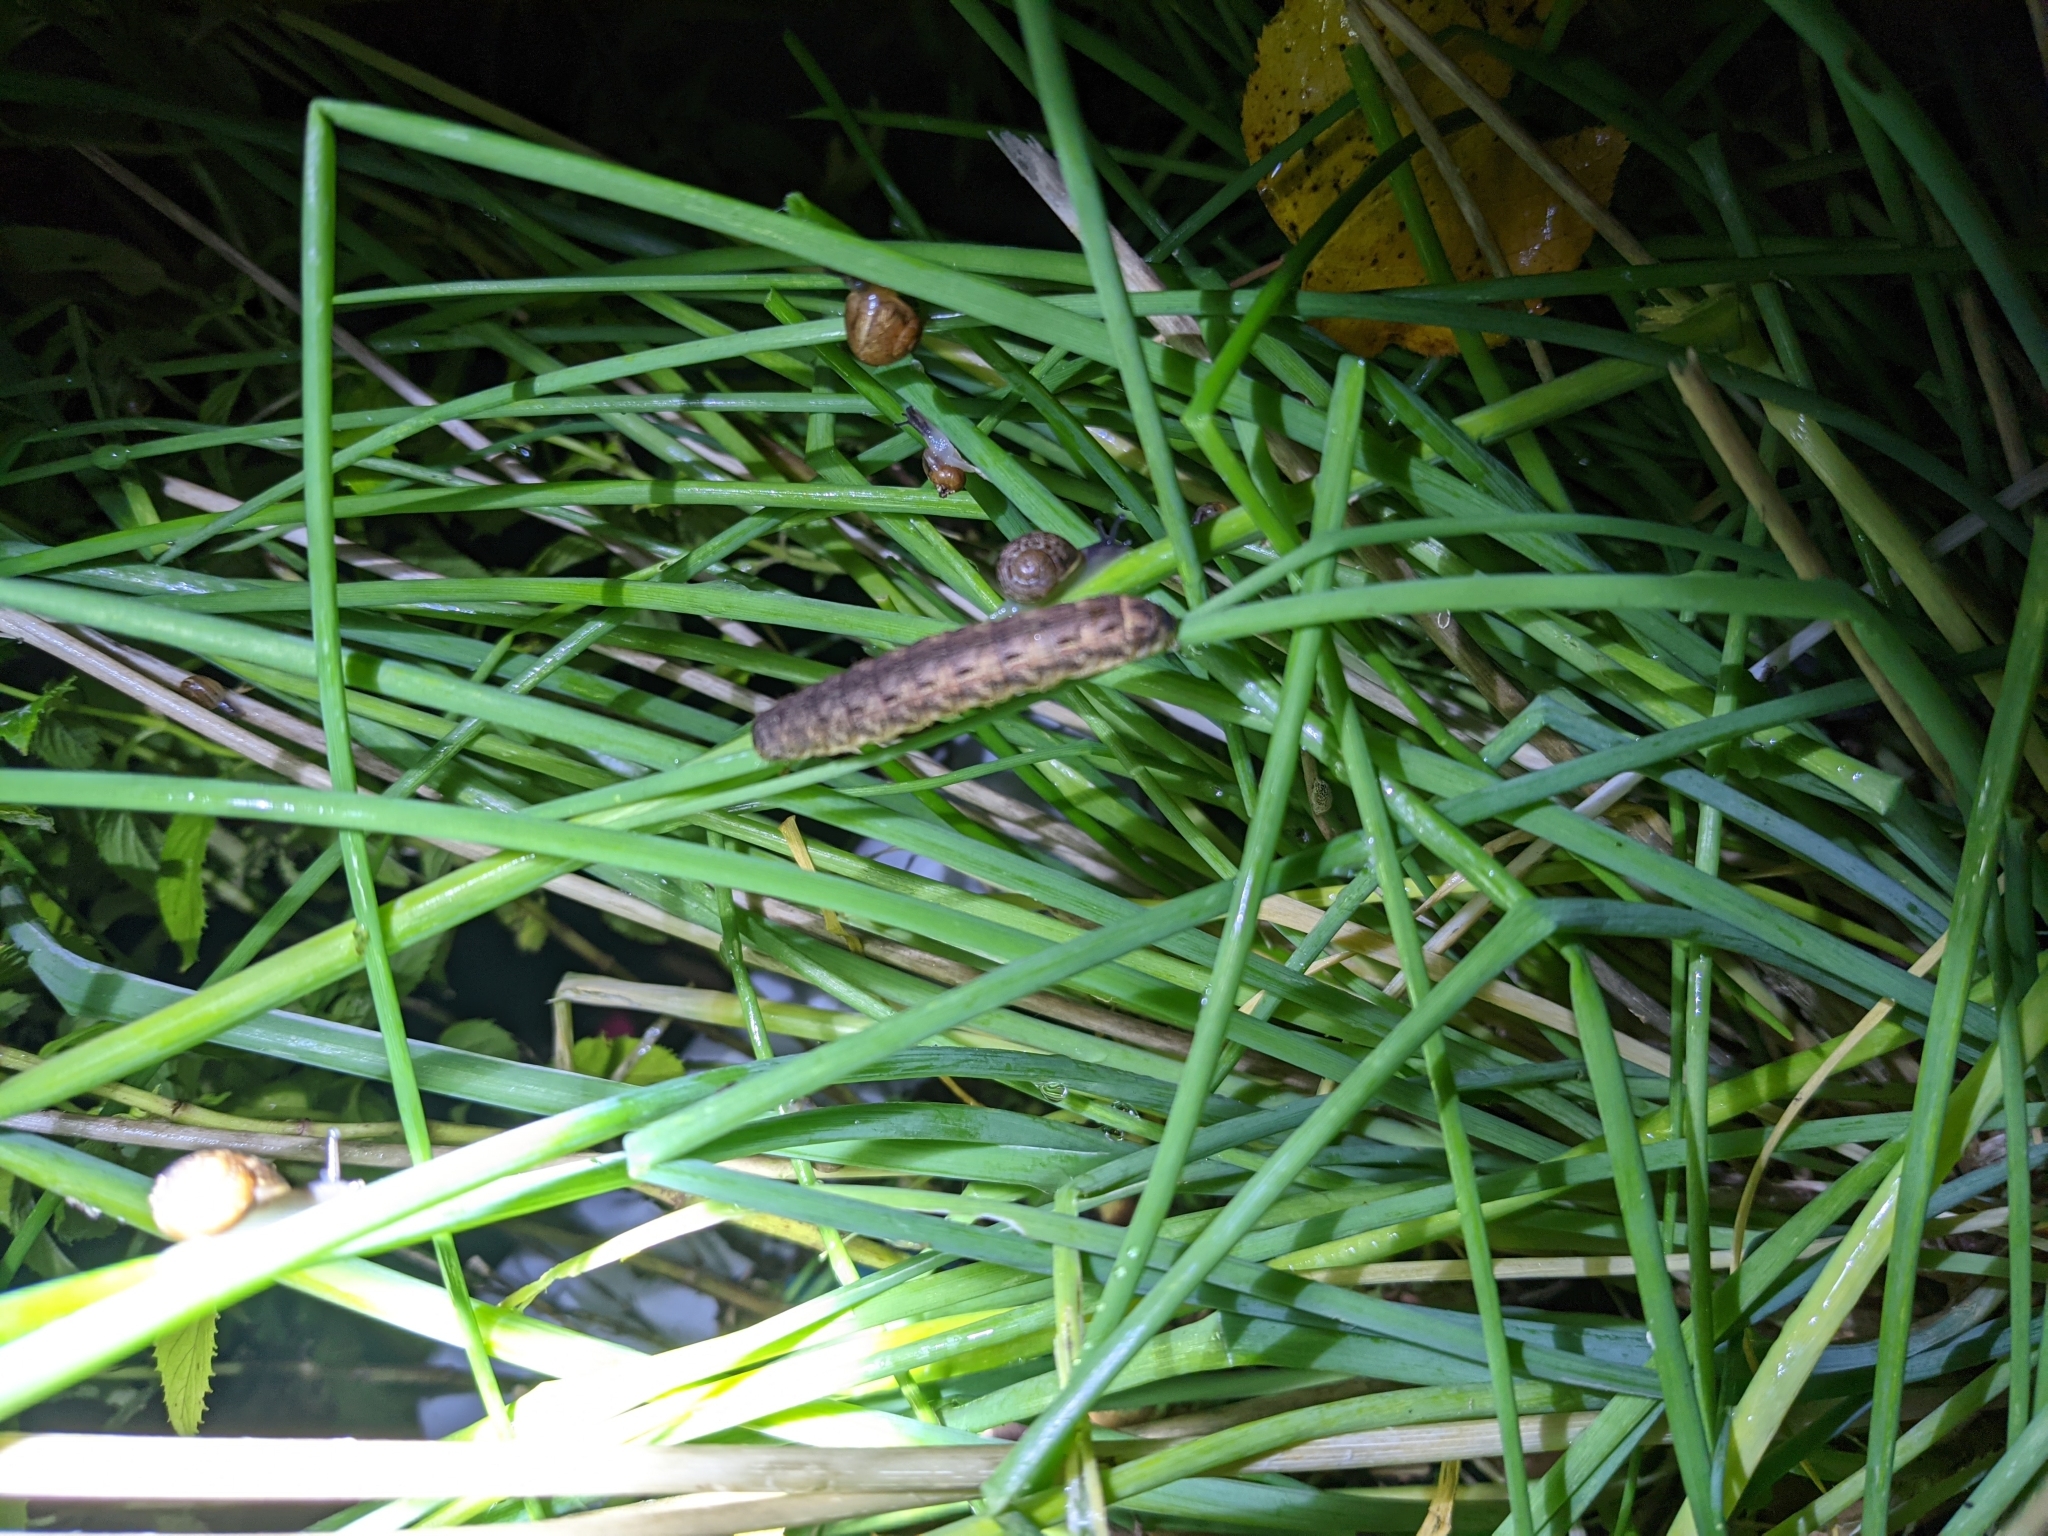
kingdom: Animalia
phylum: Arthropoda
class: Insecta
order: Lepidoptera
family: Noctuidae
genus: Noctua
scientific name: Noctua pronuba
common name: Large yellow underwing
